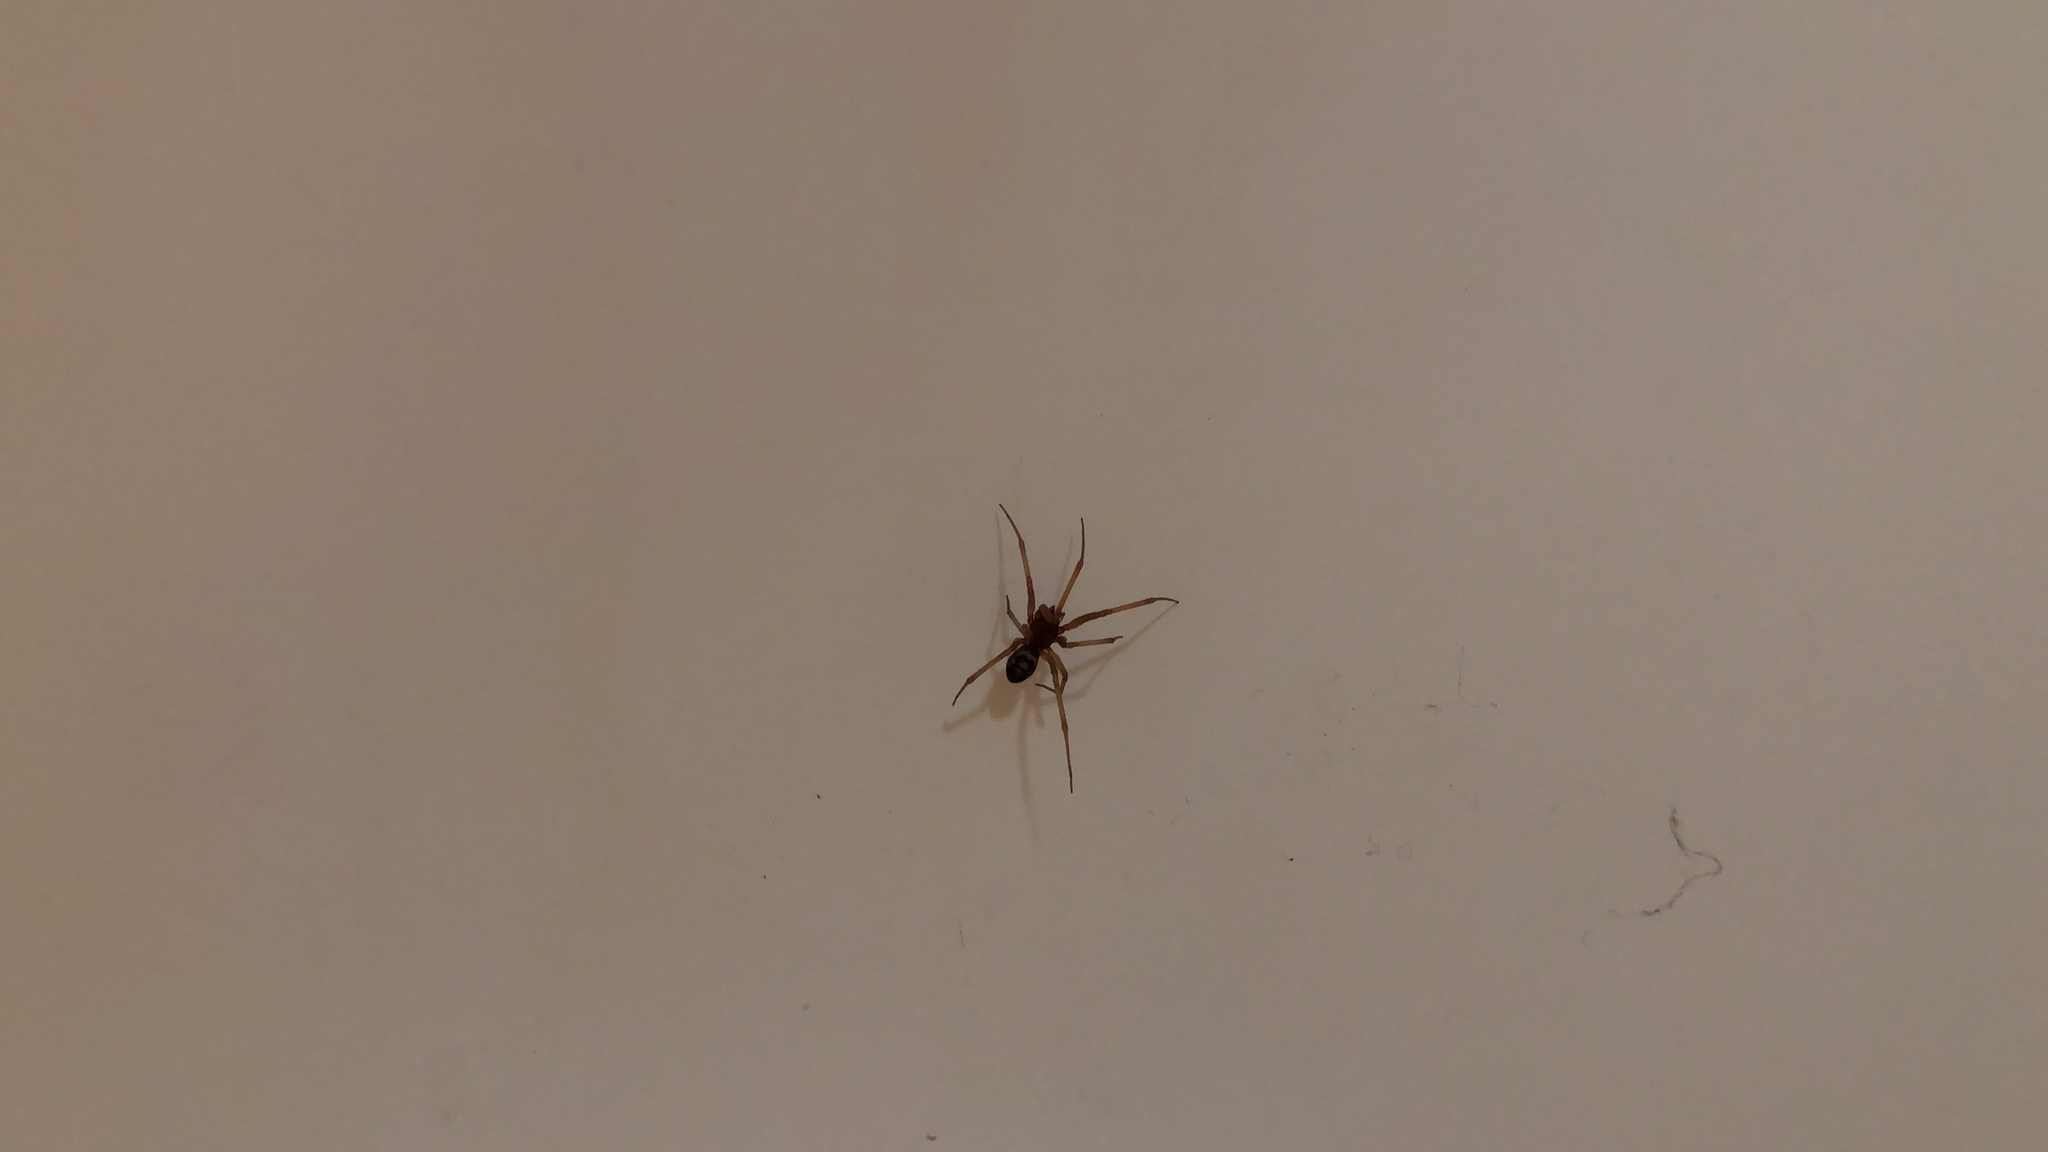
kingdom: Animalia
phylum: Arthropoda
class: Arachnida
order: Araneae
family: Theridiidae
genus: Steatoda
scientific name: Steatoda grossa
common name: False black widow
